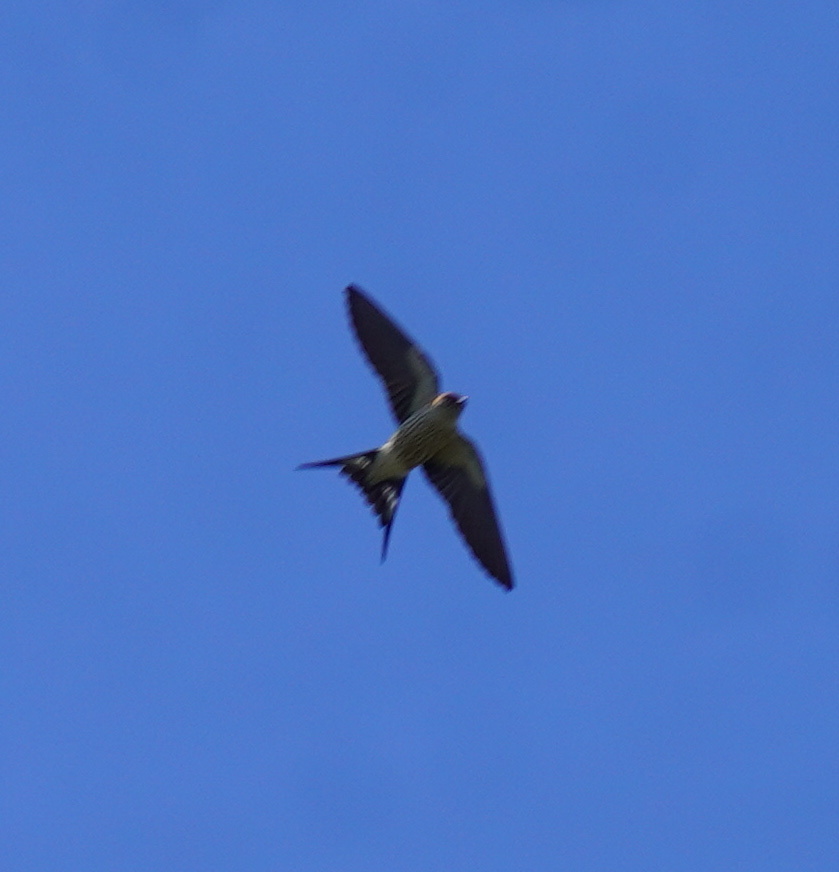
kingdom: Animalia
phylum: Chordata
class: Aves
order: Passeriformes
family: Hirundinidae
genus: Cecropis
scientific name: Cecropis cucullata
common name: Greater striped-swallow
